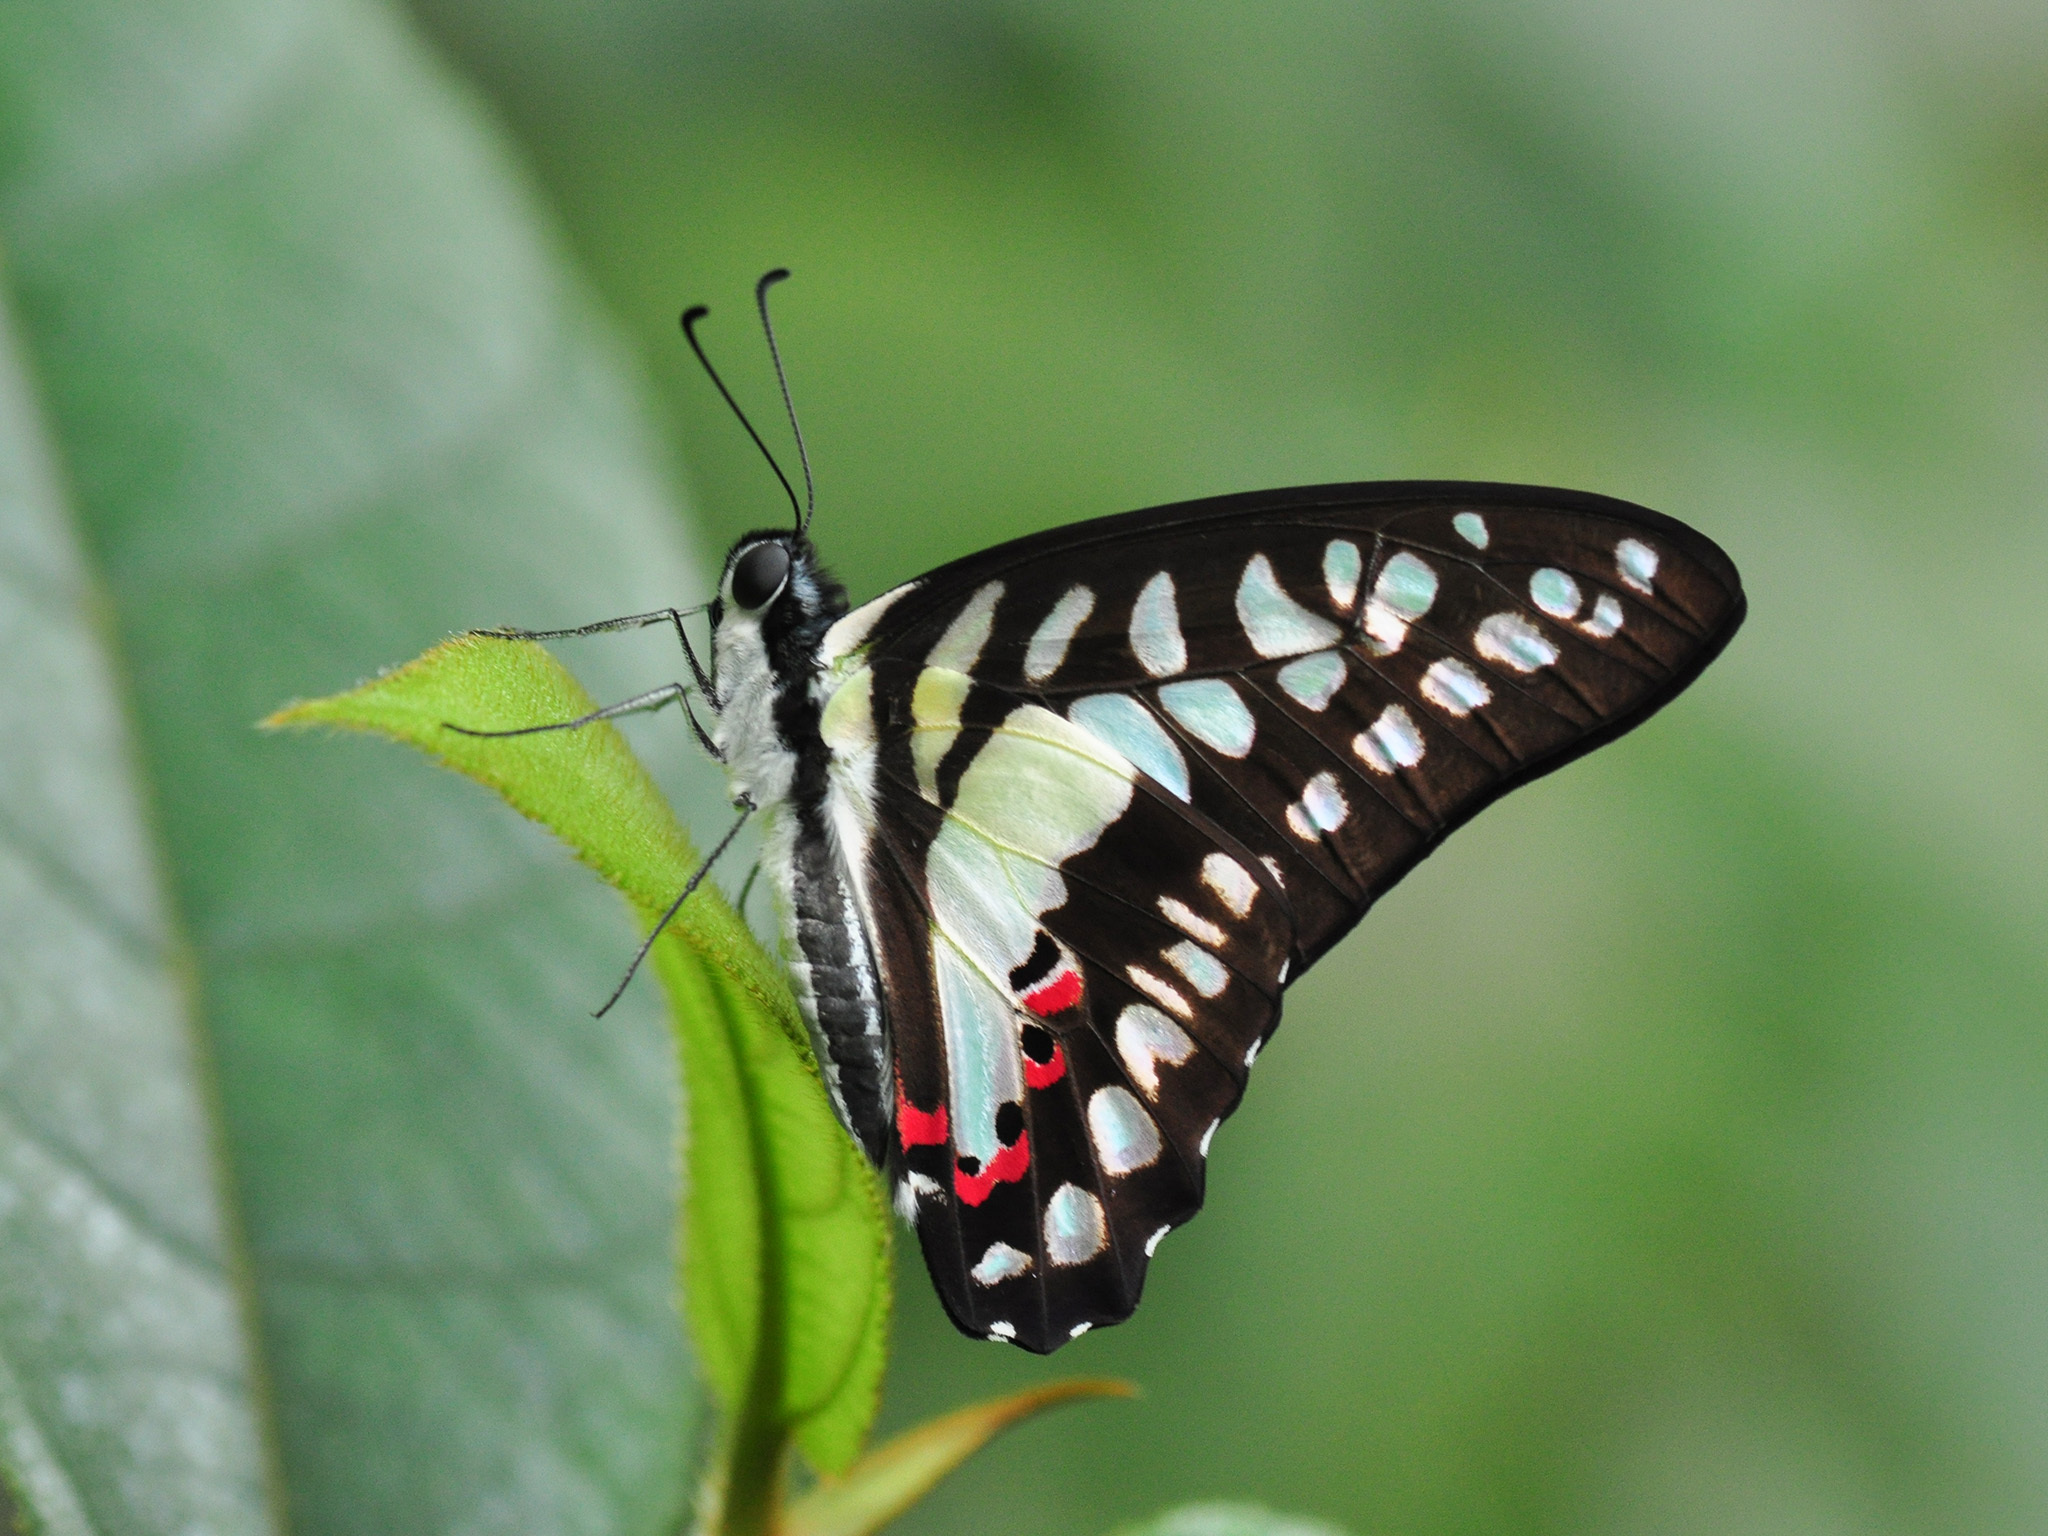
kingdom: Animalia
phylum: Arthropoda
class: Insecta
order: Lepidoptera
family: Papilionidae
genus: Graphium
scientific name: Graphium evemon
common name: Lesser jay
